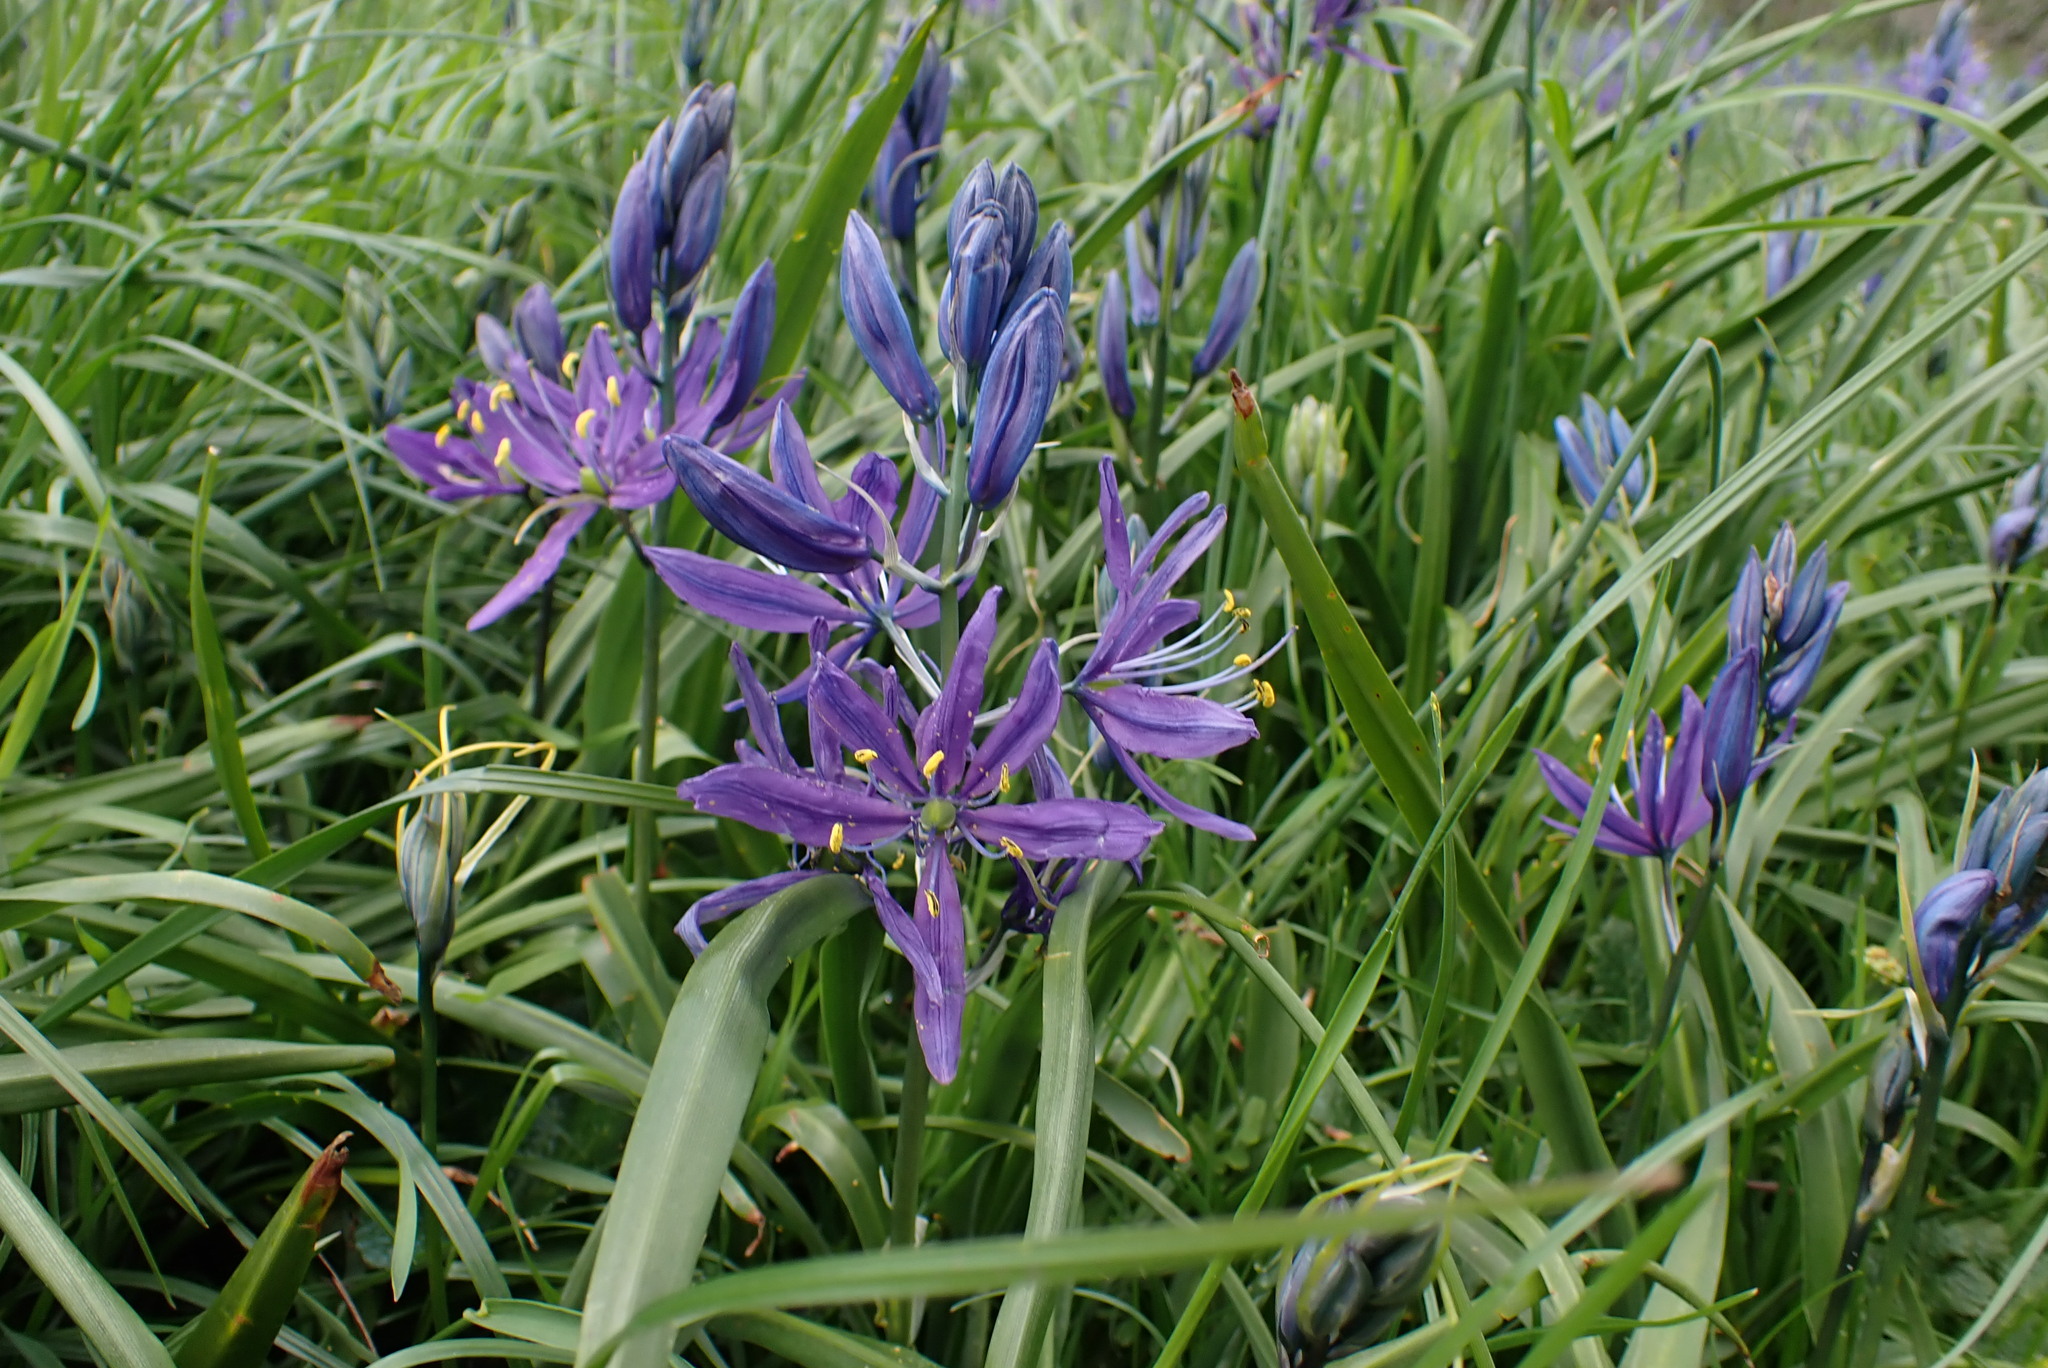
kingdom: Plantae
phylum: Tracheophyta
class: Liliopsida
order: Asparagales
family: Asparagaceae
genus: Camassia
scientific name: Camassia quamash
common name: Common camas
